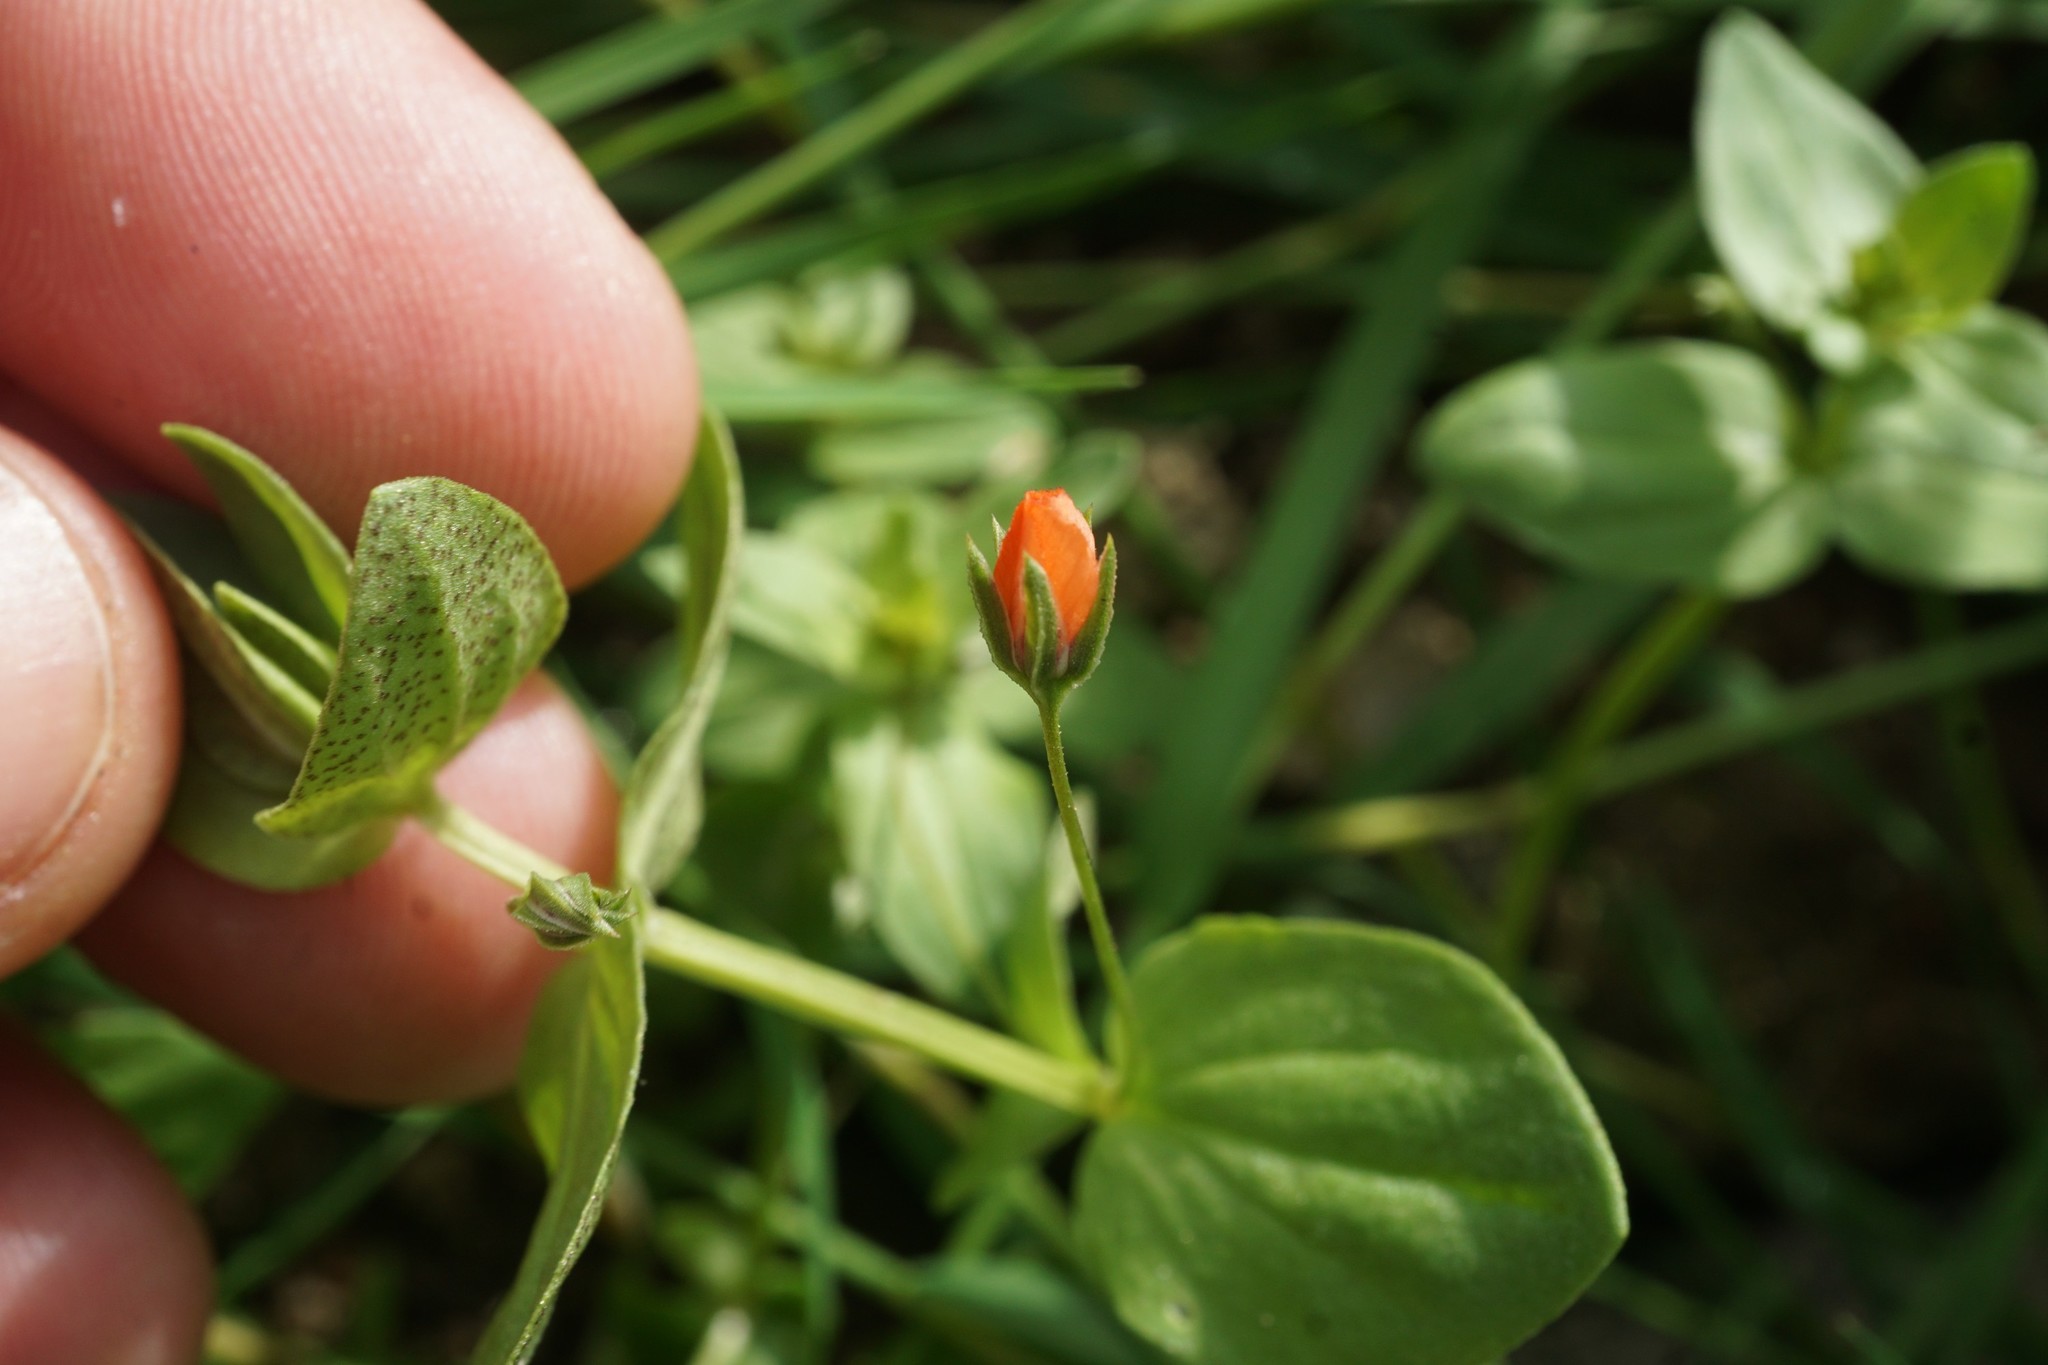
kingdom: Plantae
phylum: Tracheophyta
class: Magnoliopsida
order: Ericales
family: Primulaceae
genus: Lysimachia
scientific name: Lysimachia arvensis
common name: Scarlet pimpernel
